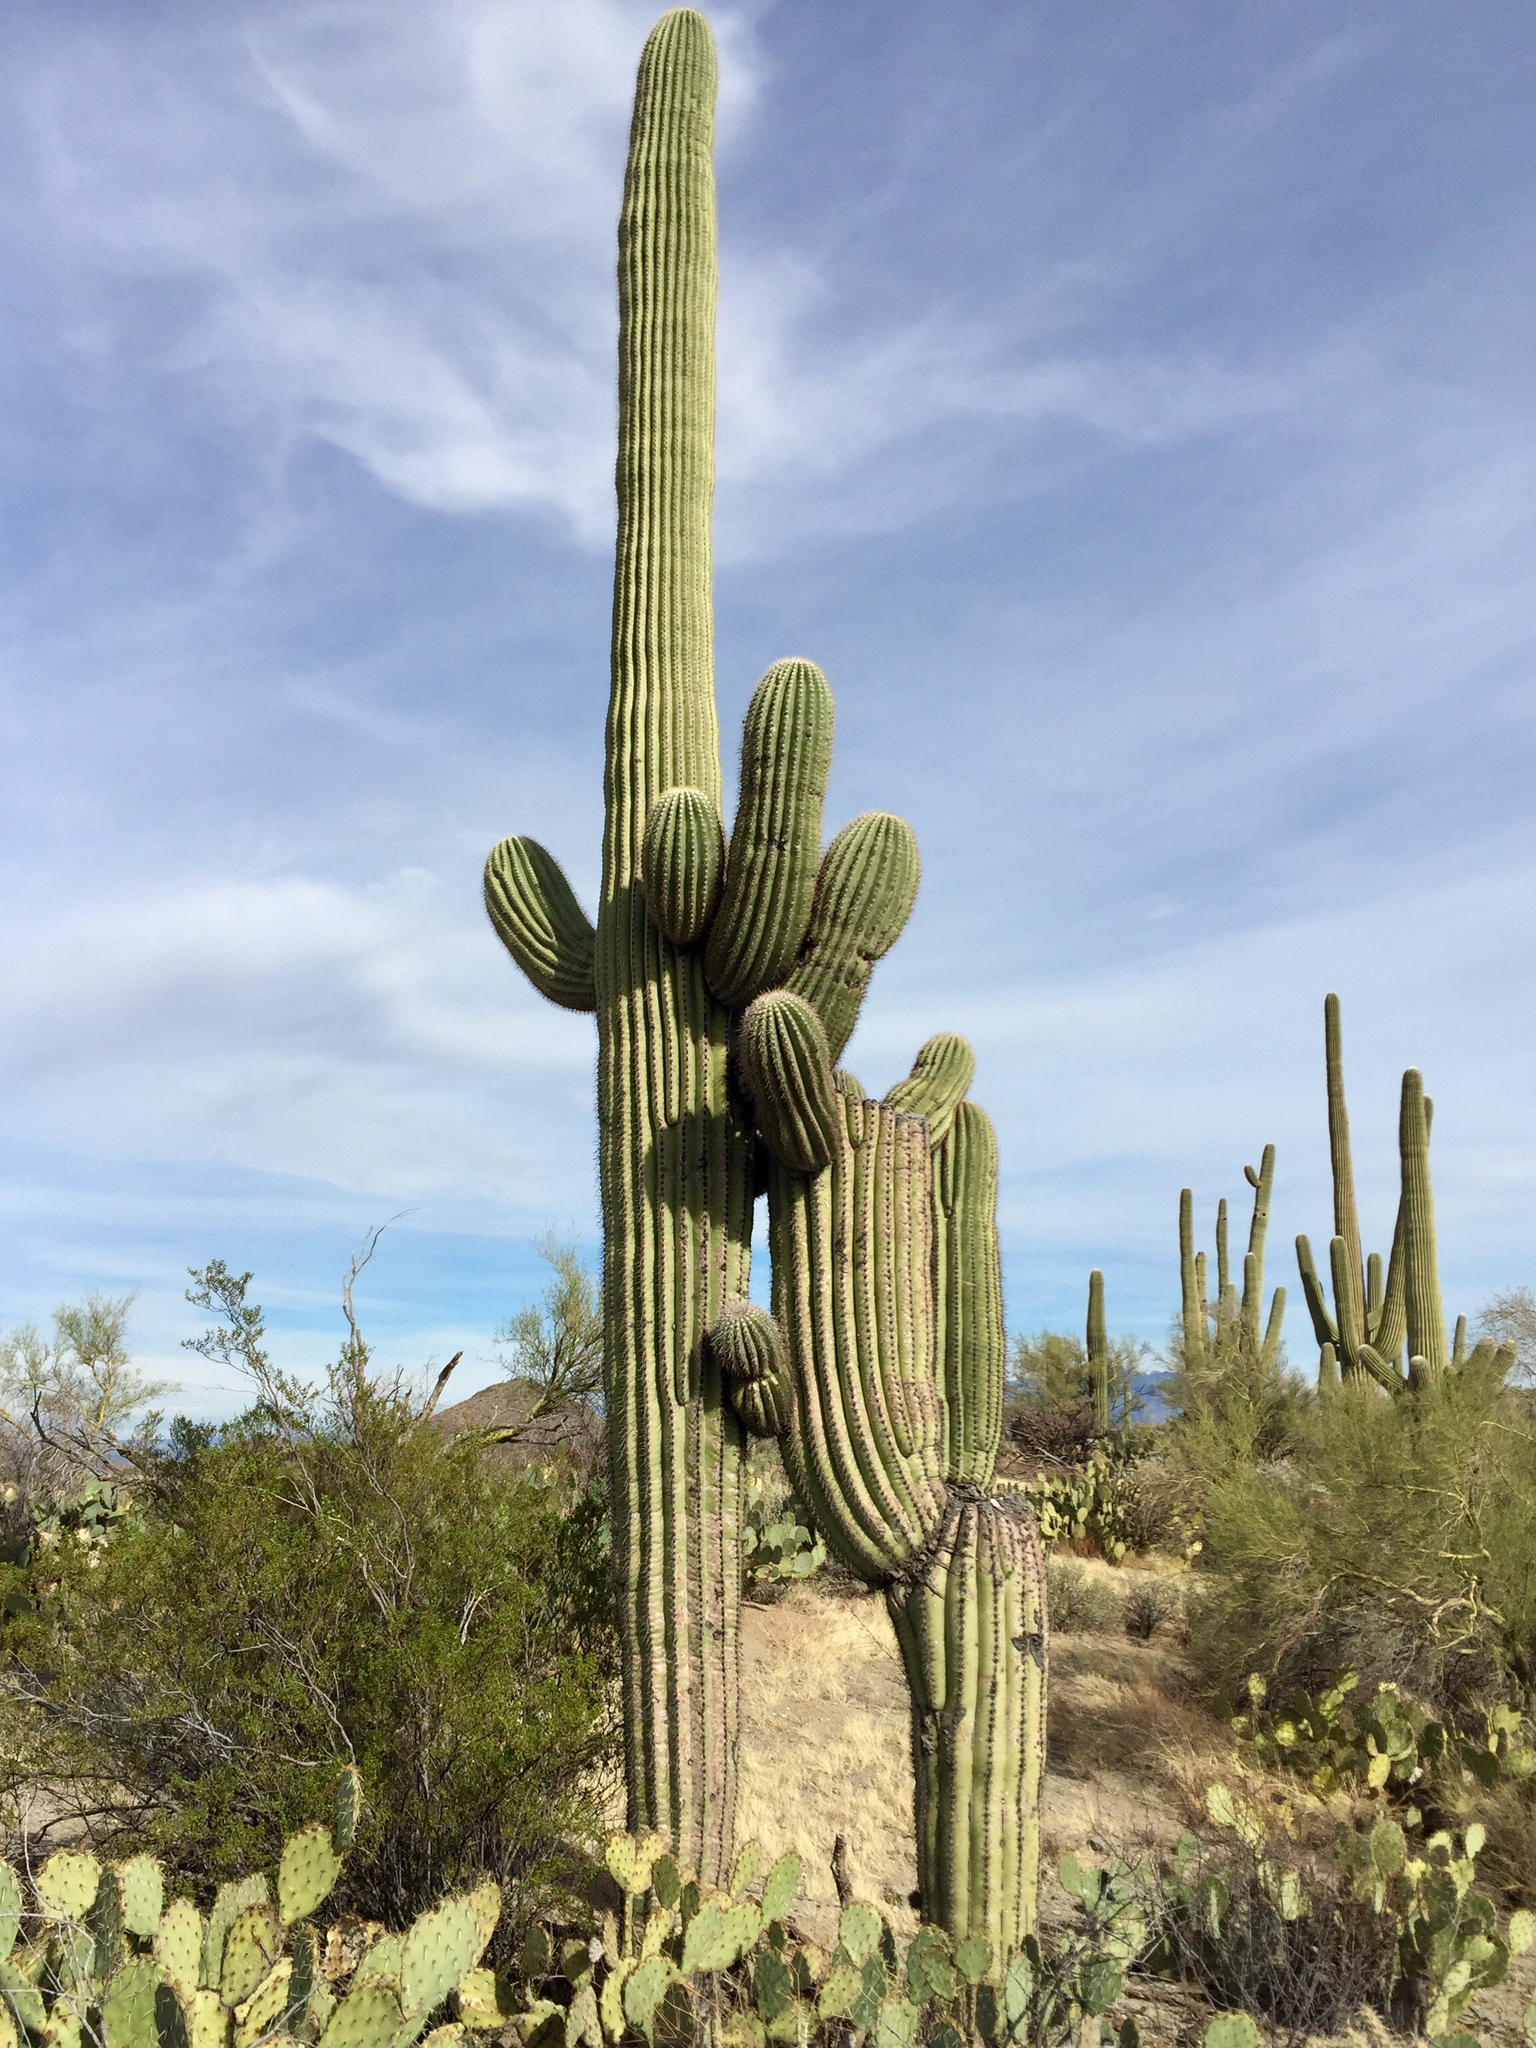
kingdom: Plantae
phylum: Tracheophyta
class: Magnoliopsida
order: Caryophyllales
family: Cactaceae
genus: Carnegiea
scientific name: Carnegiea gigantea
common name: Saguaro
